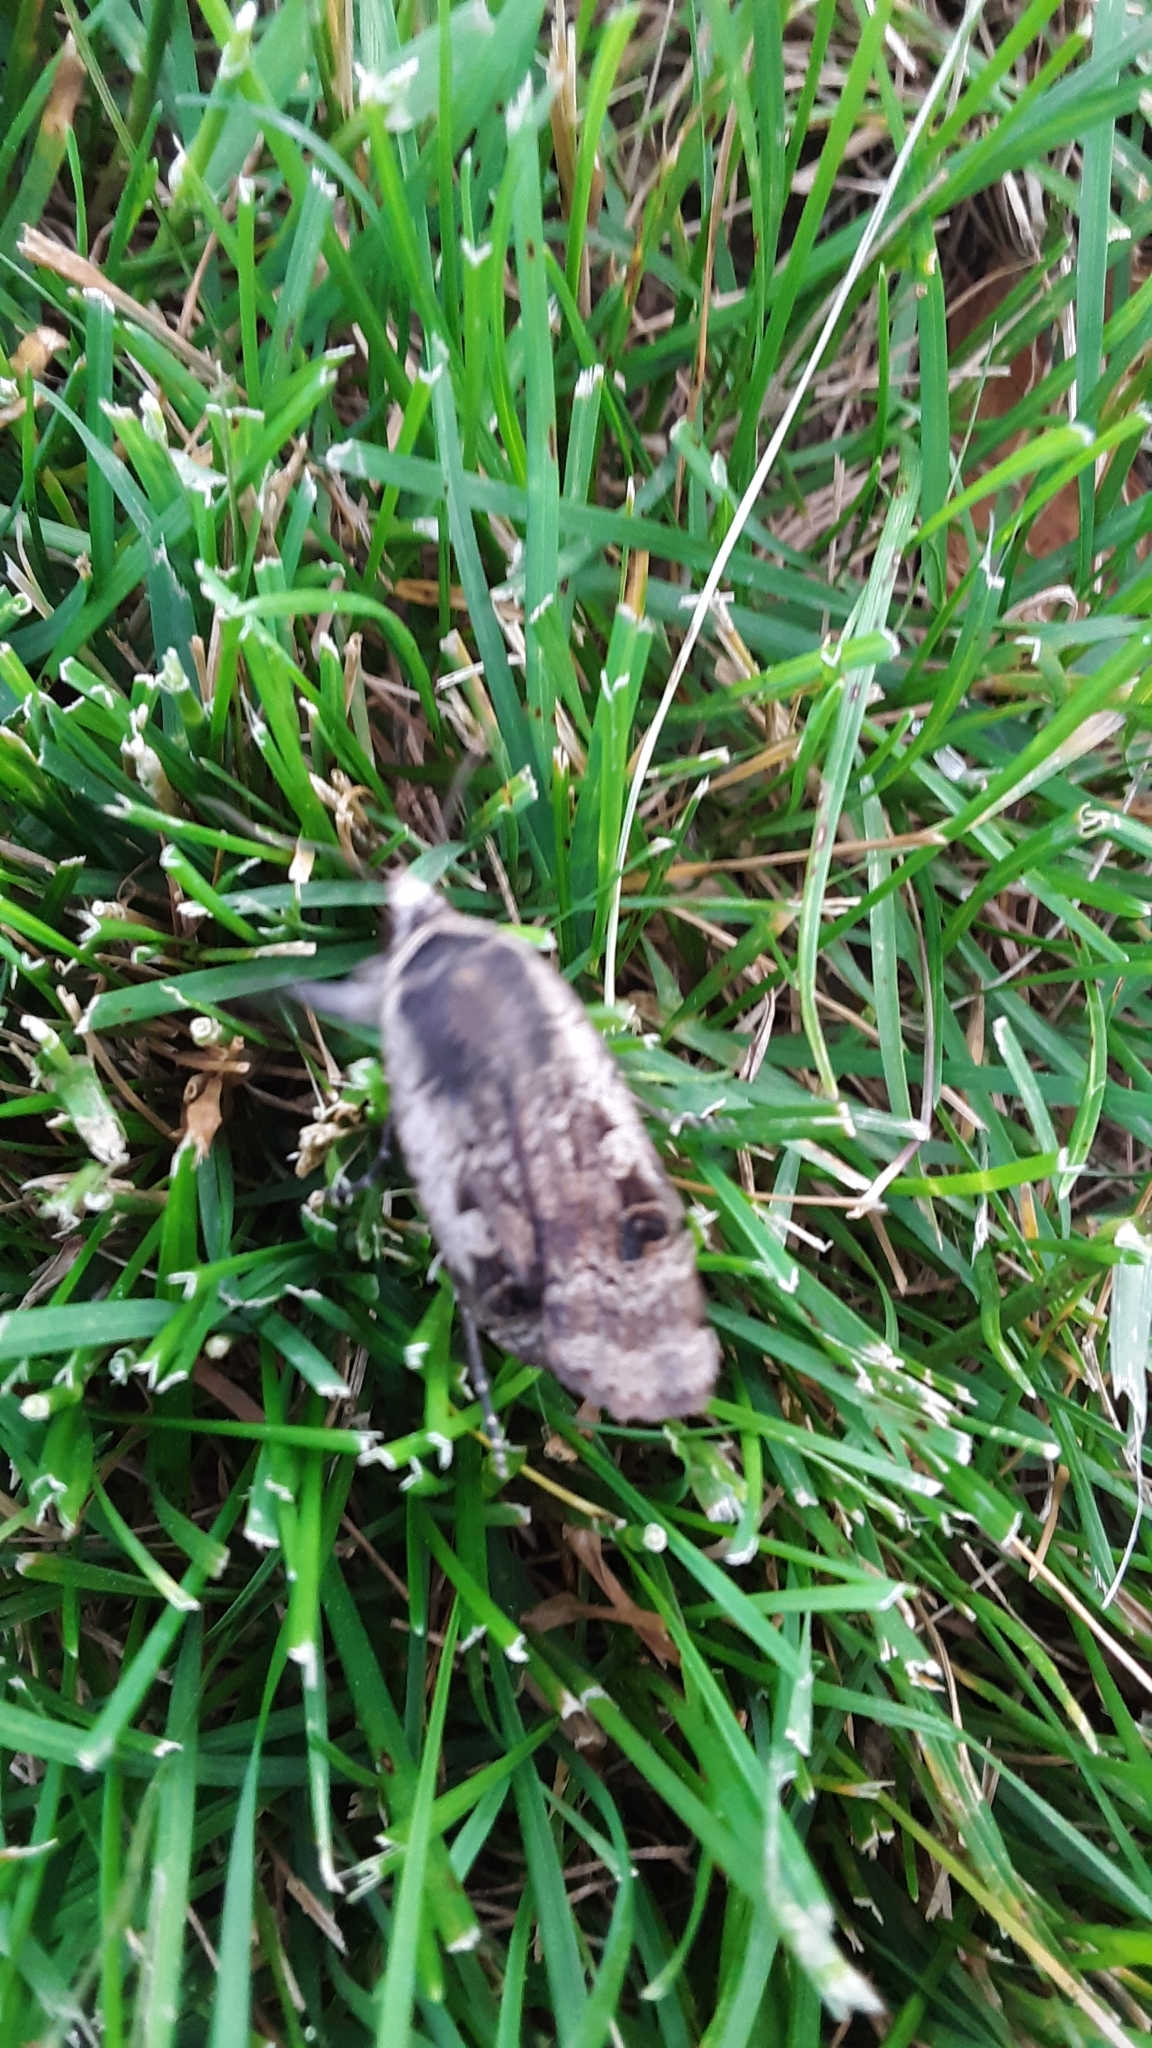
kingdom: Animalia
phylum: Arthropoda
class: Insecta
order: Lepidoptera
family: Noctuidae
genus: Noctua
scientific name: Noctua pronuba
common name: Large yellow underwing
